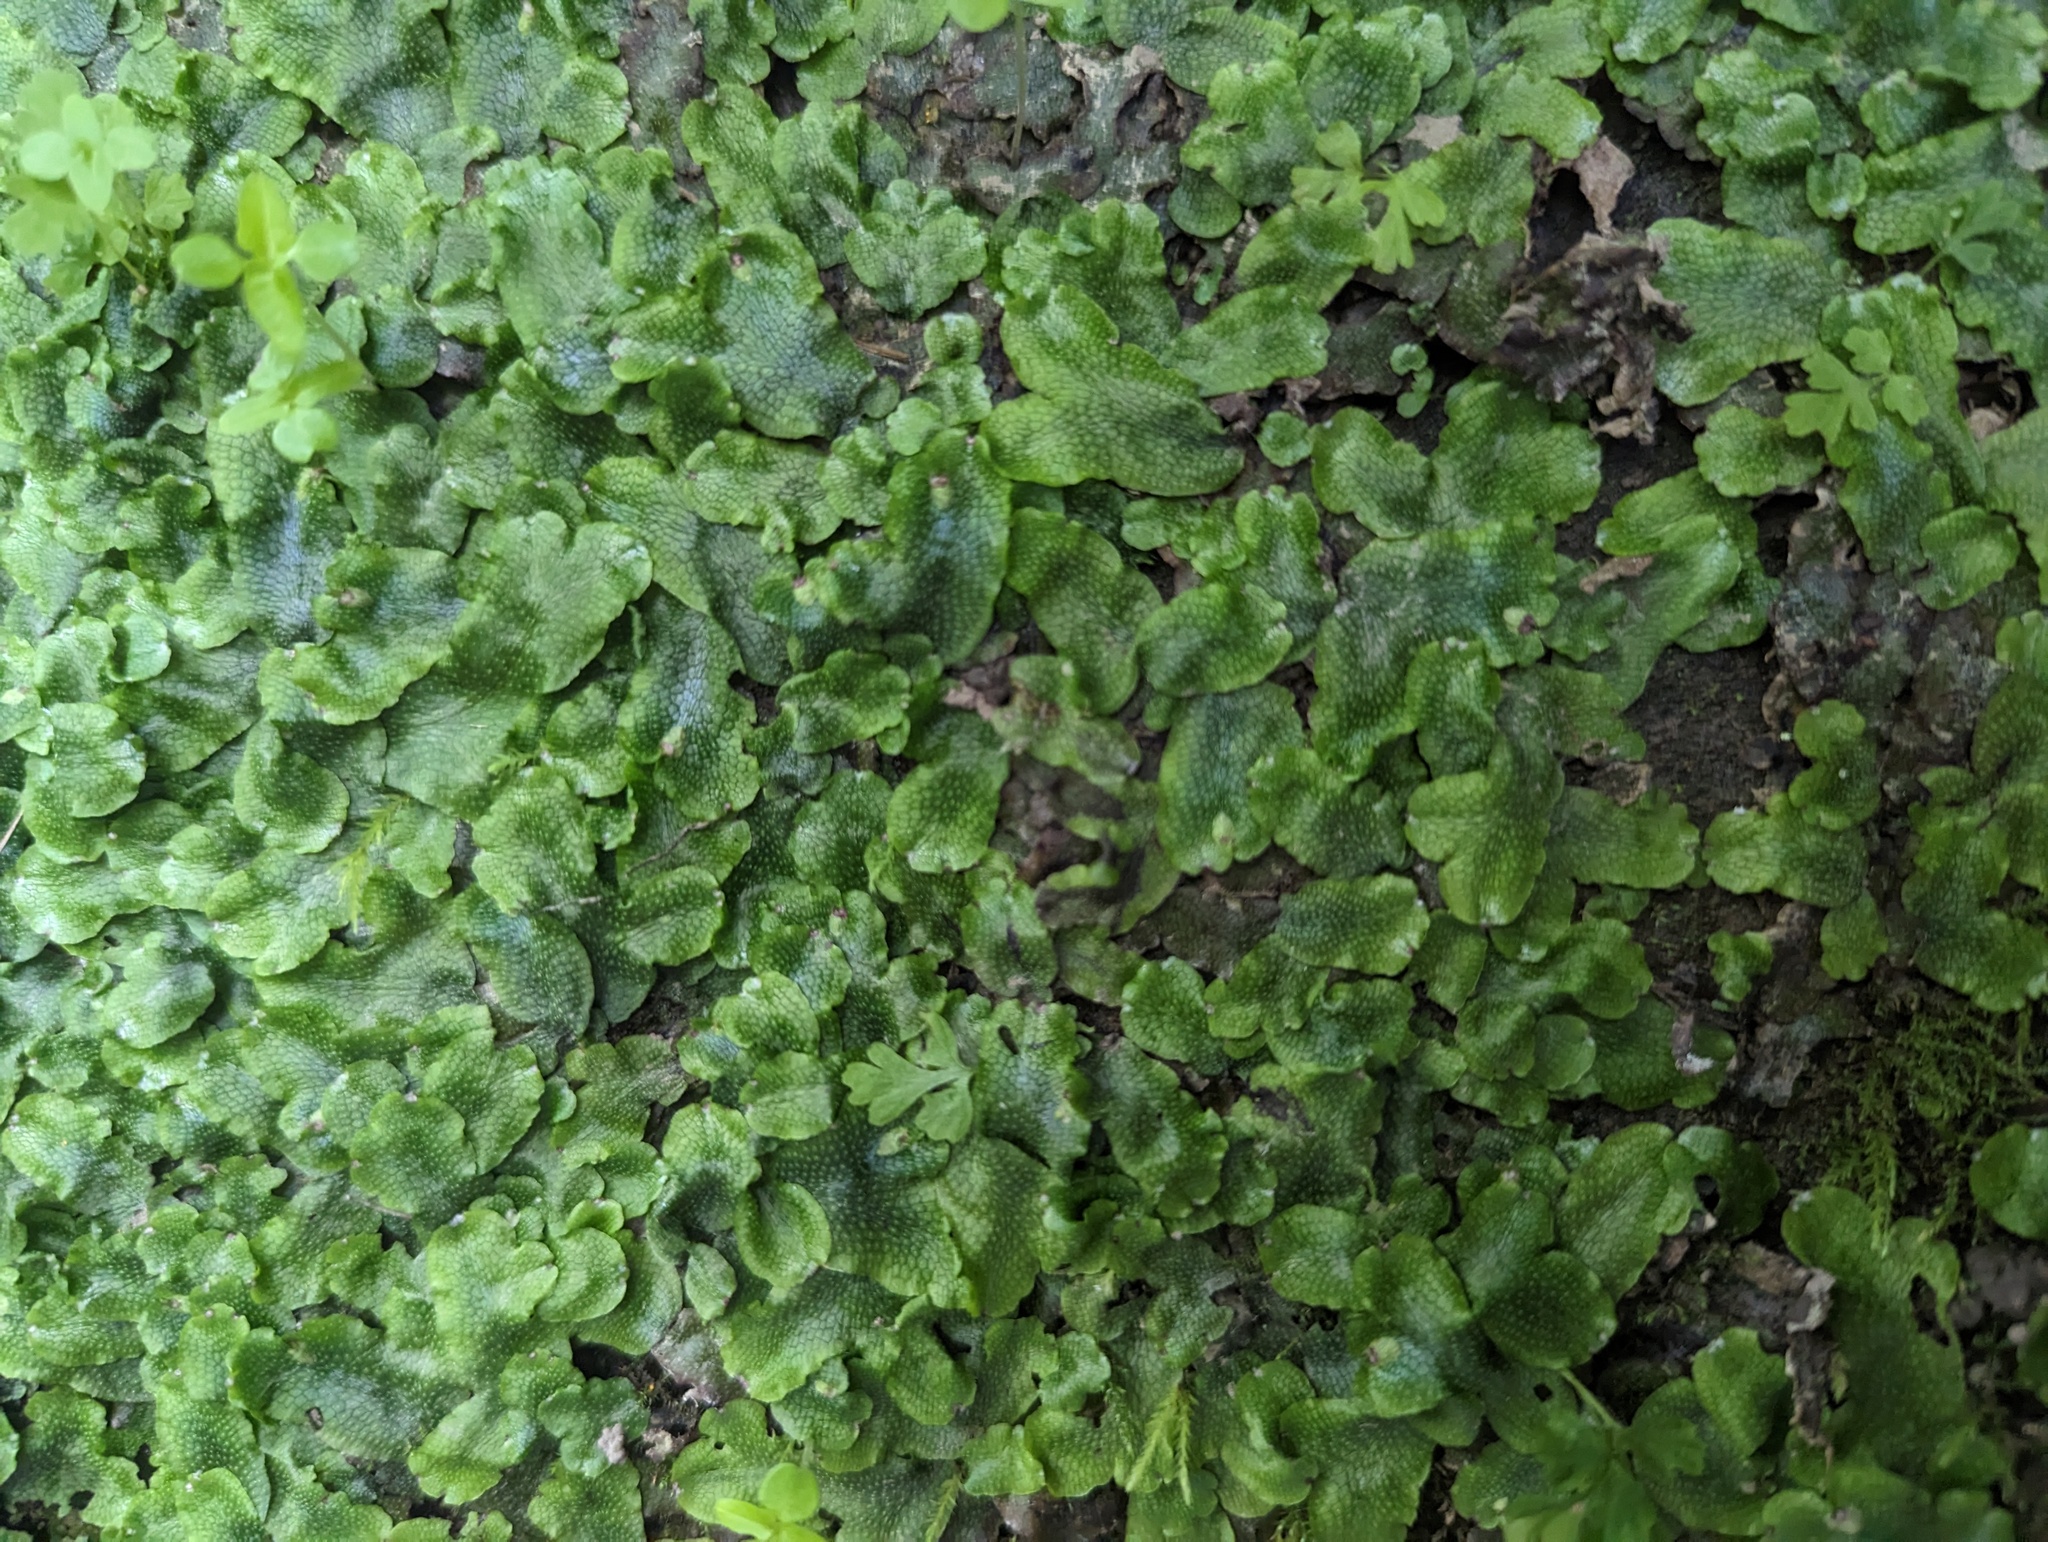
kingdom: Plantae
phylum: Marchantiophyta
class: Marchantiopsida
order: Marchantiales
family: Conocephalaceae
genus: Conocephalum
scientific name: Conocephalum salebrosum
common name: Cat-tongue liverwort
